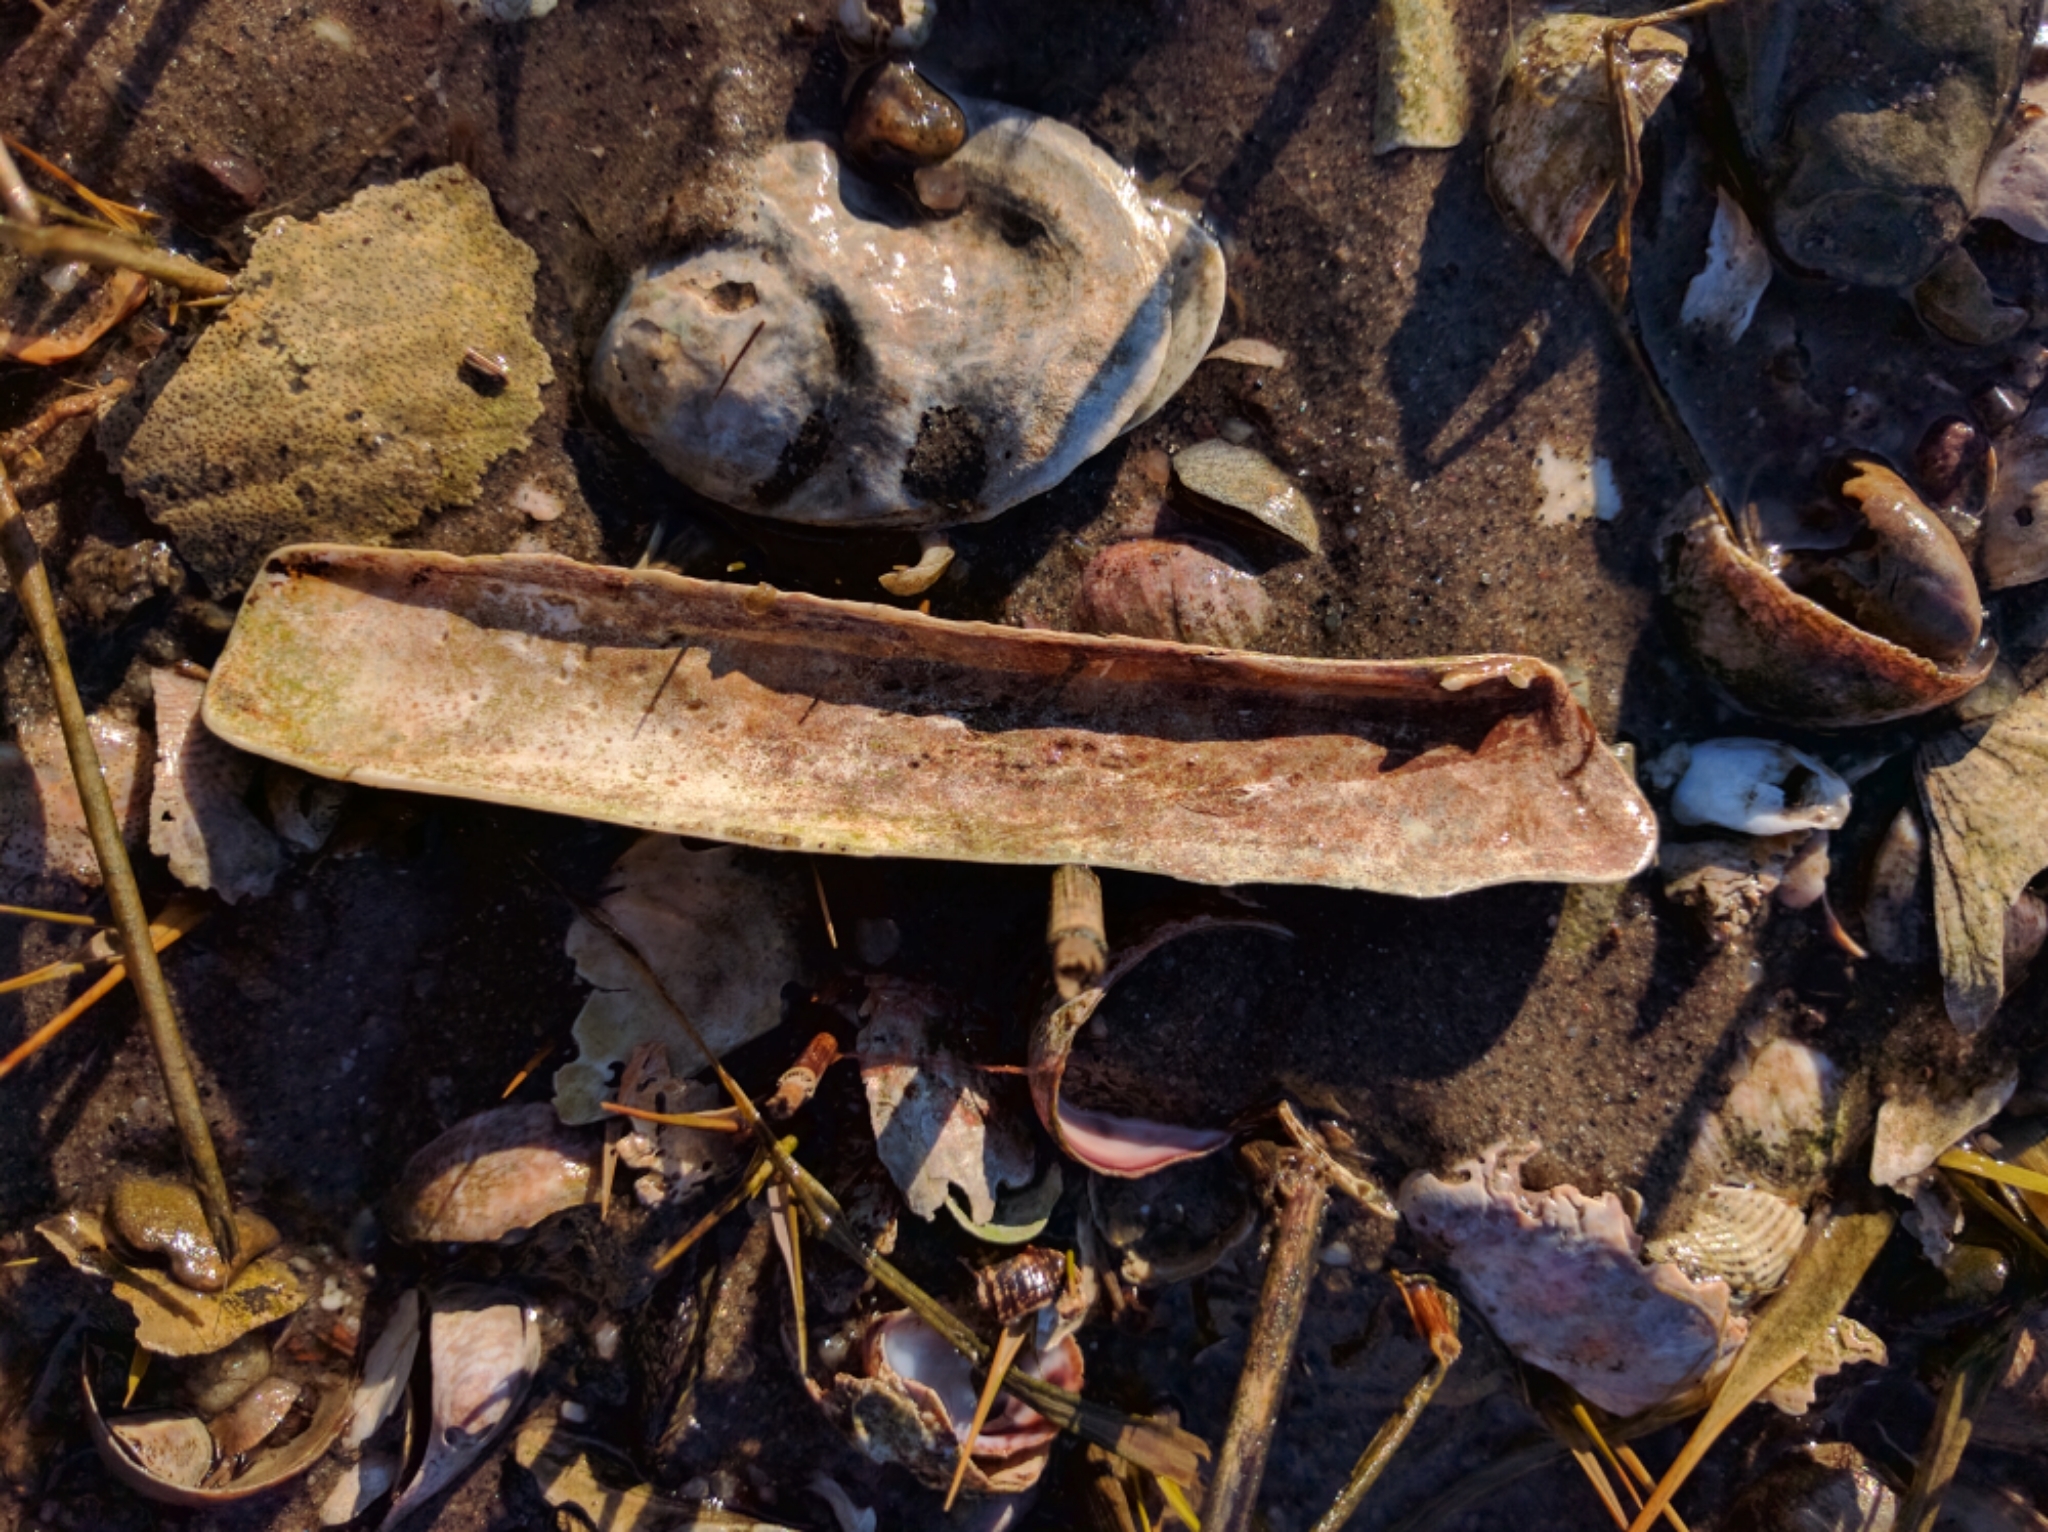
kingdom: Animalia
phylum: Mollusca
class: Bivalvia
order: Adapedonta
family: Pharidae
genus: Ensis
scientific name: Ensis leei
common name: American jack knife clam
